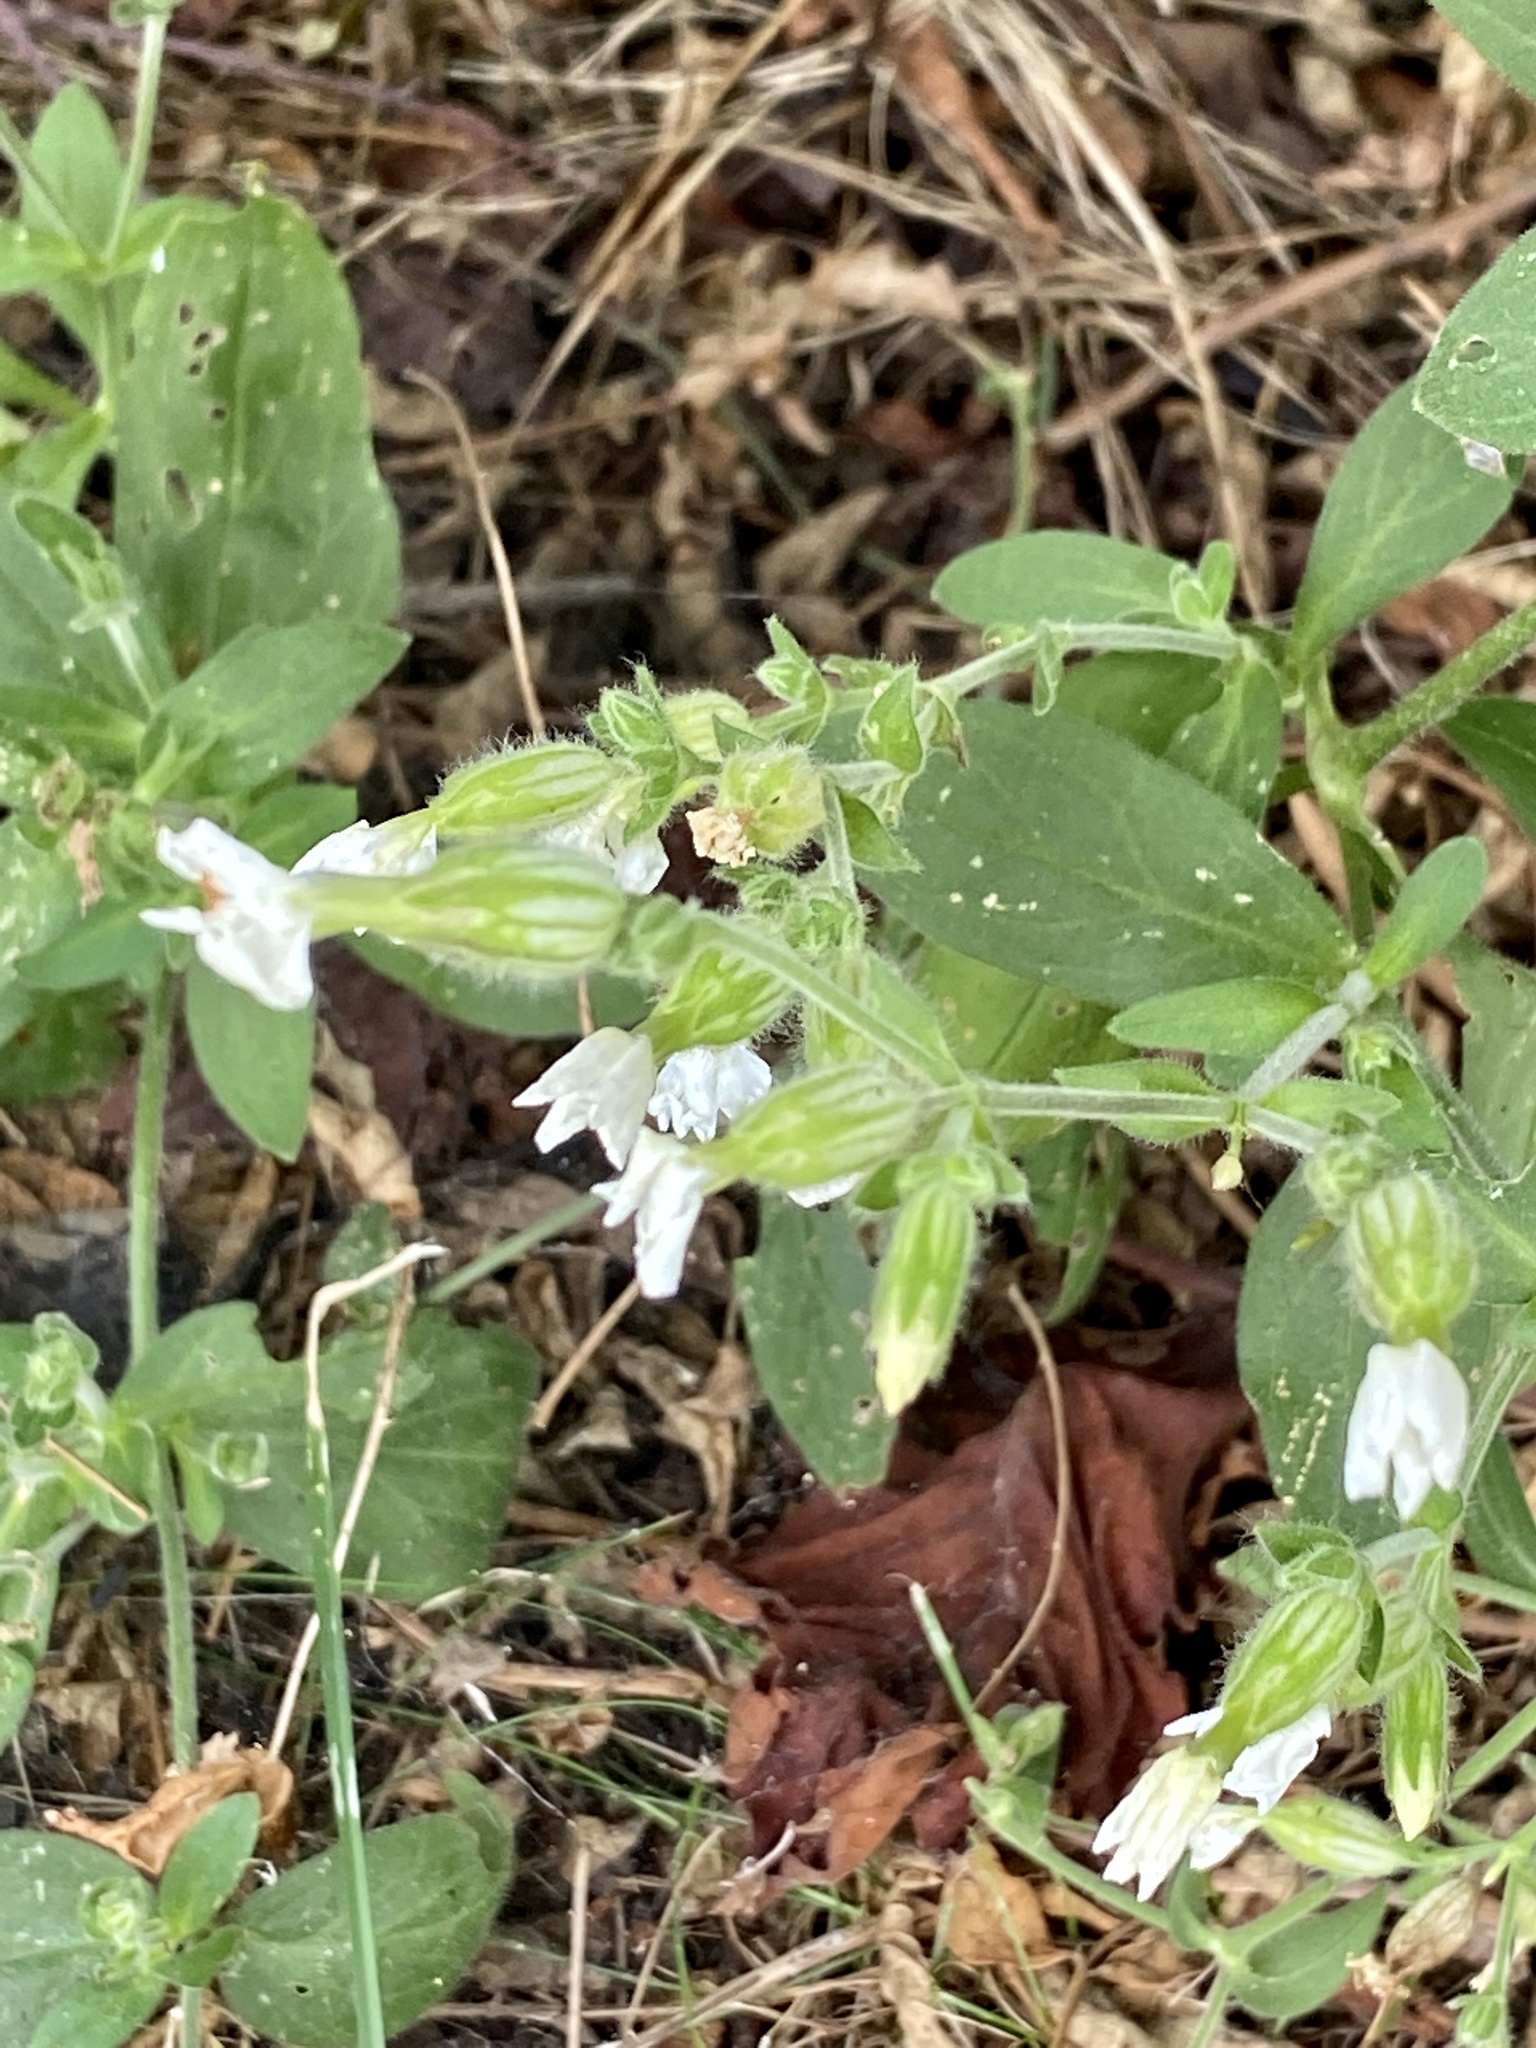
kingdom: Plantae
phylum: Tracheophyta
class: Magnoliopsida
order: Caryophyllales
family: Caryophyllaceae
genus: Silene
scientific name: Silene latifolia
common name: White campion
